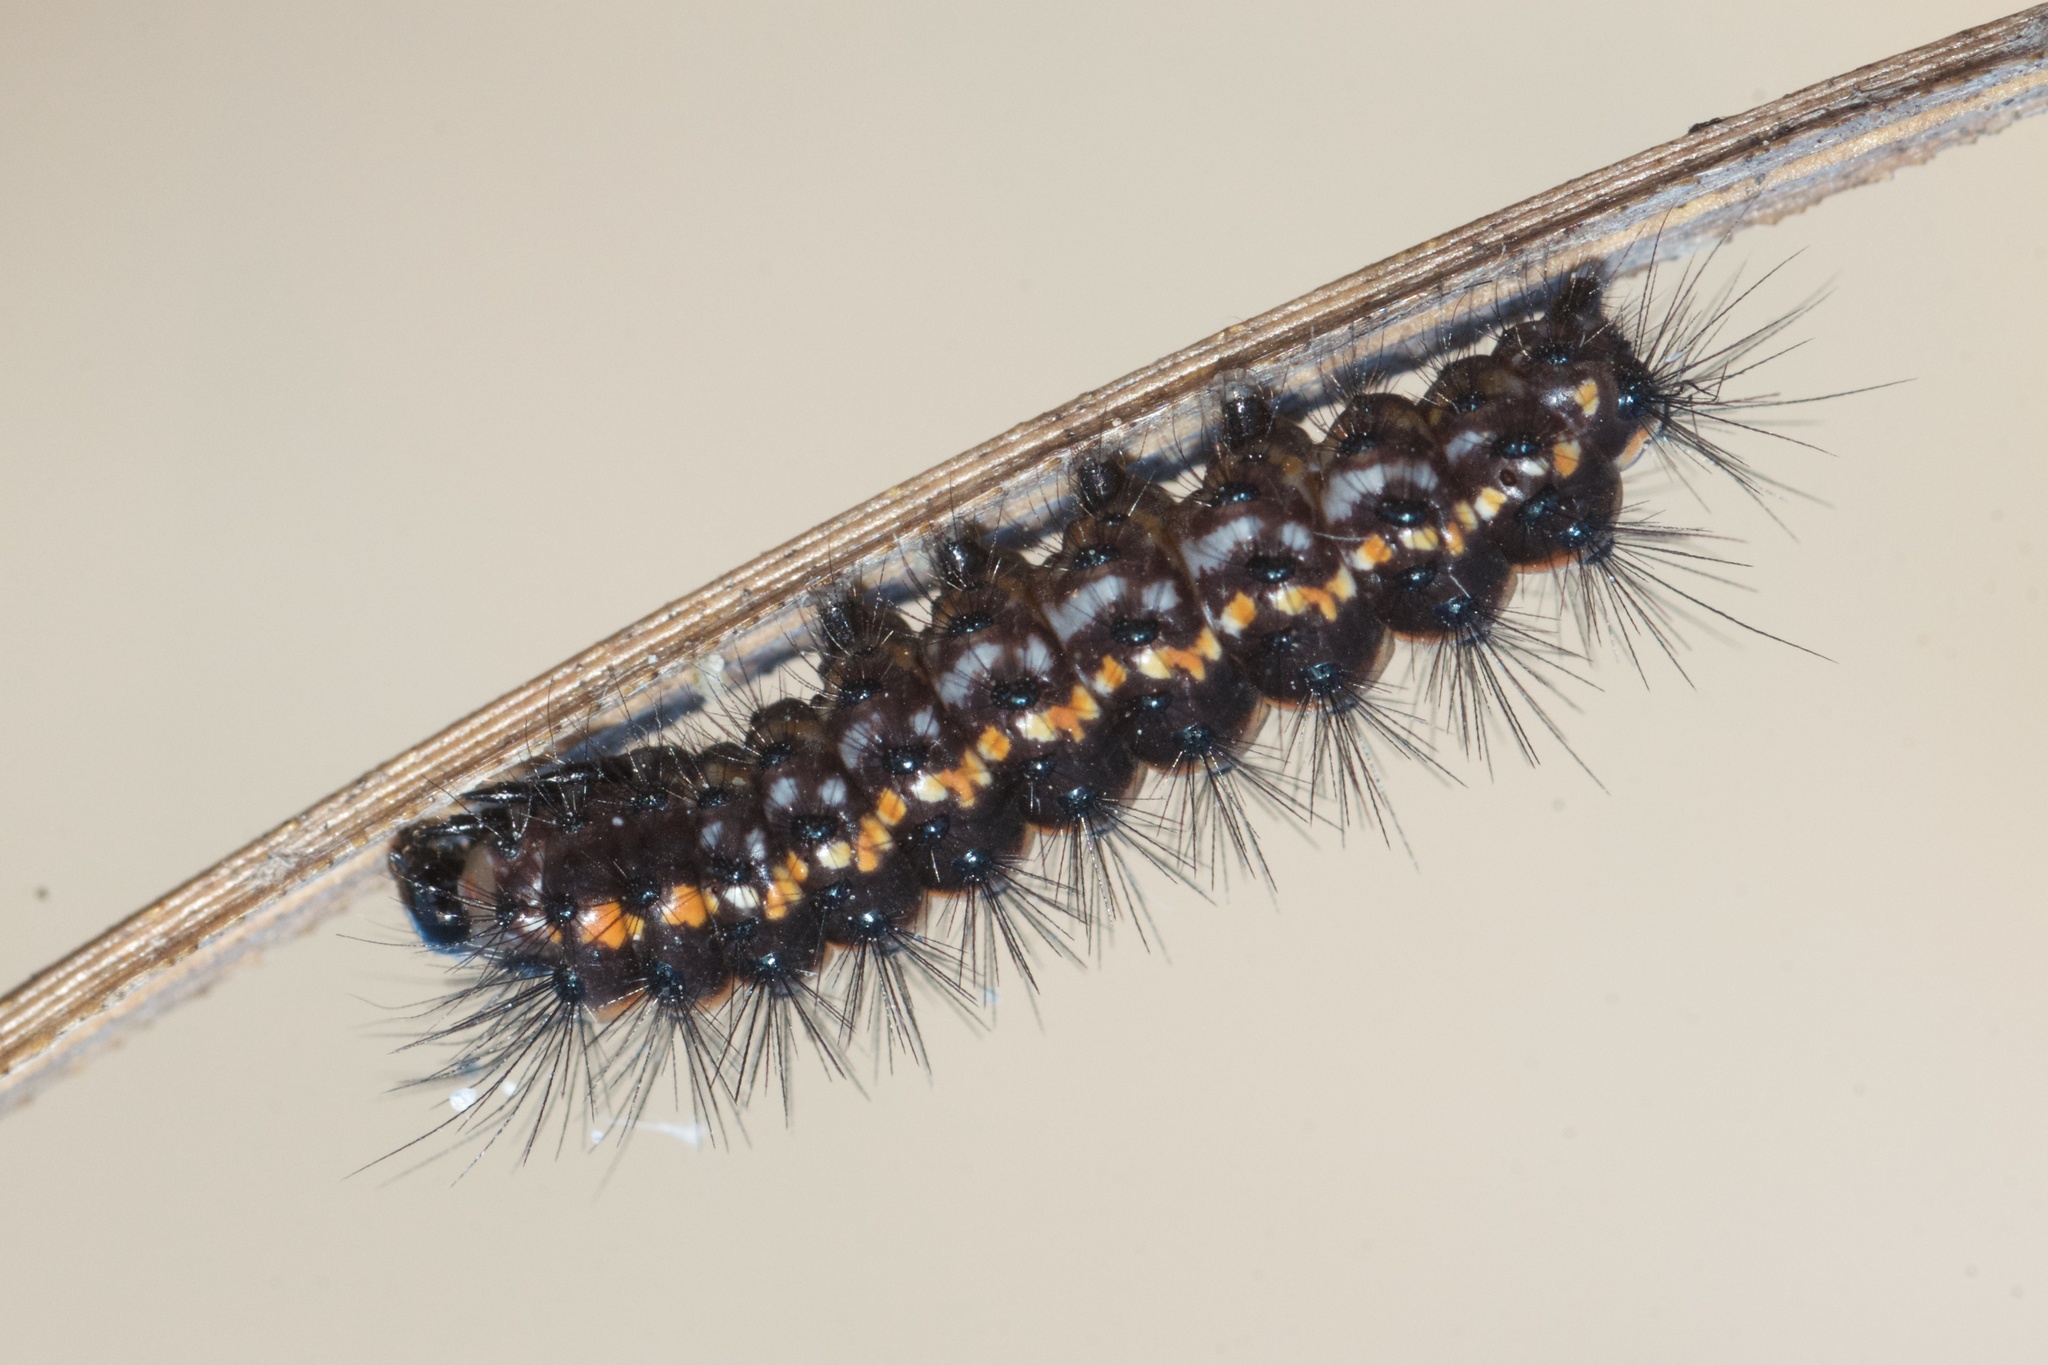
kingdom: Animalia
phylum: Arthropoda
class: Insecta
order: Lepidoptera
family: Erebidae
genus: Nyctemera
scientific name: Nyctemera annulatum
